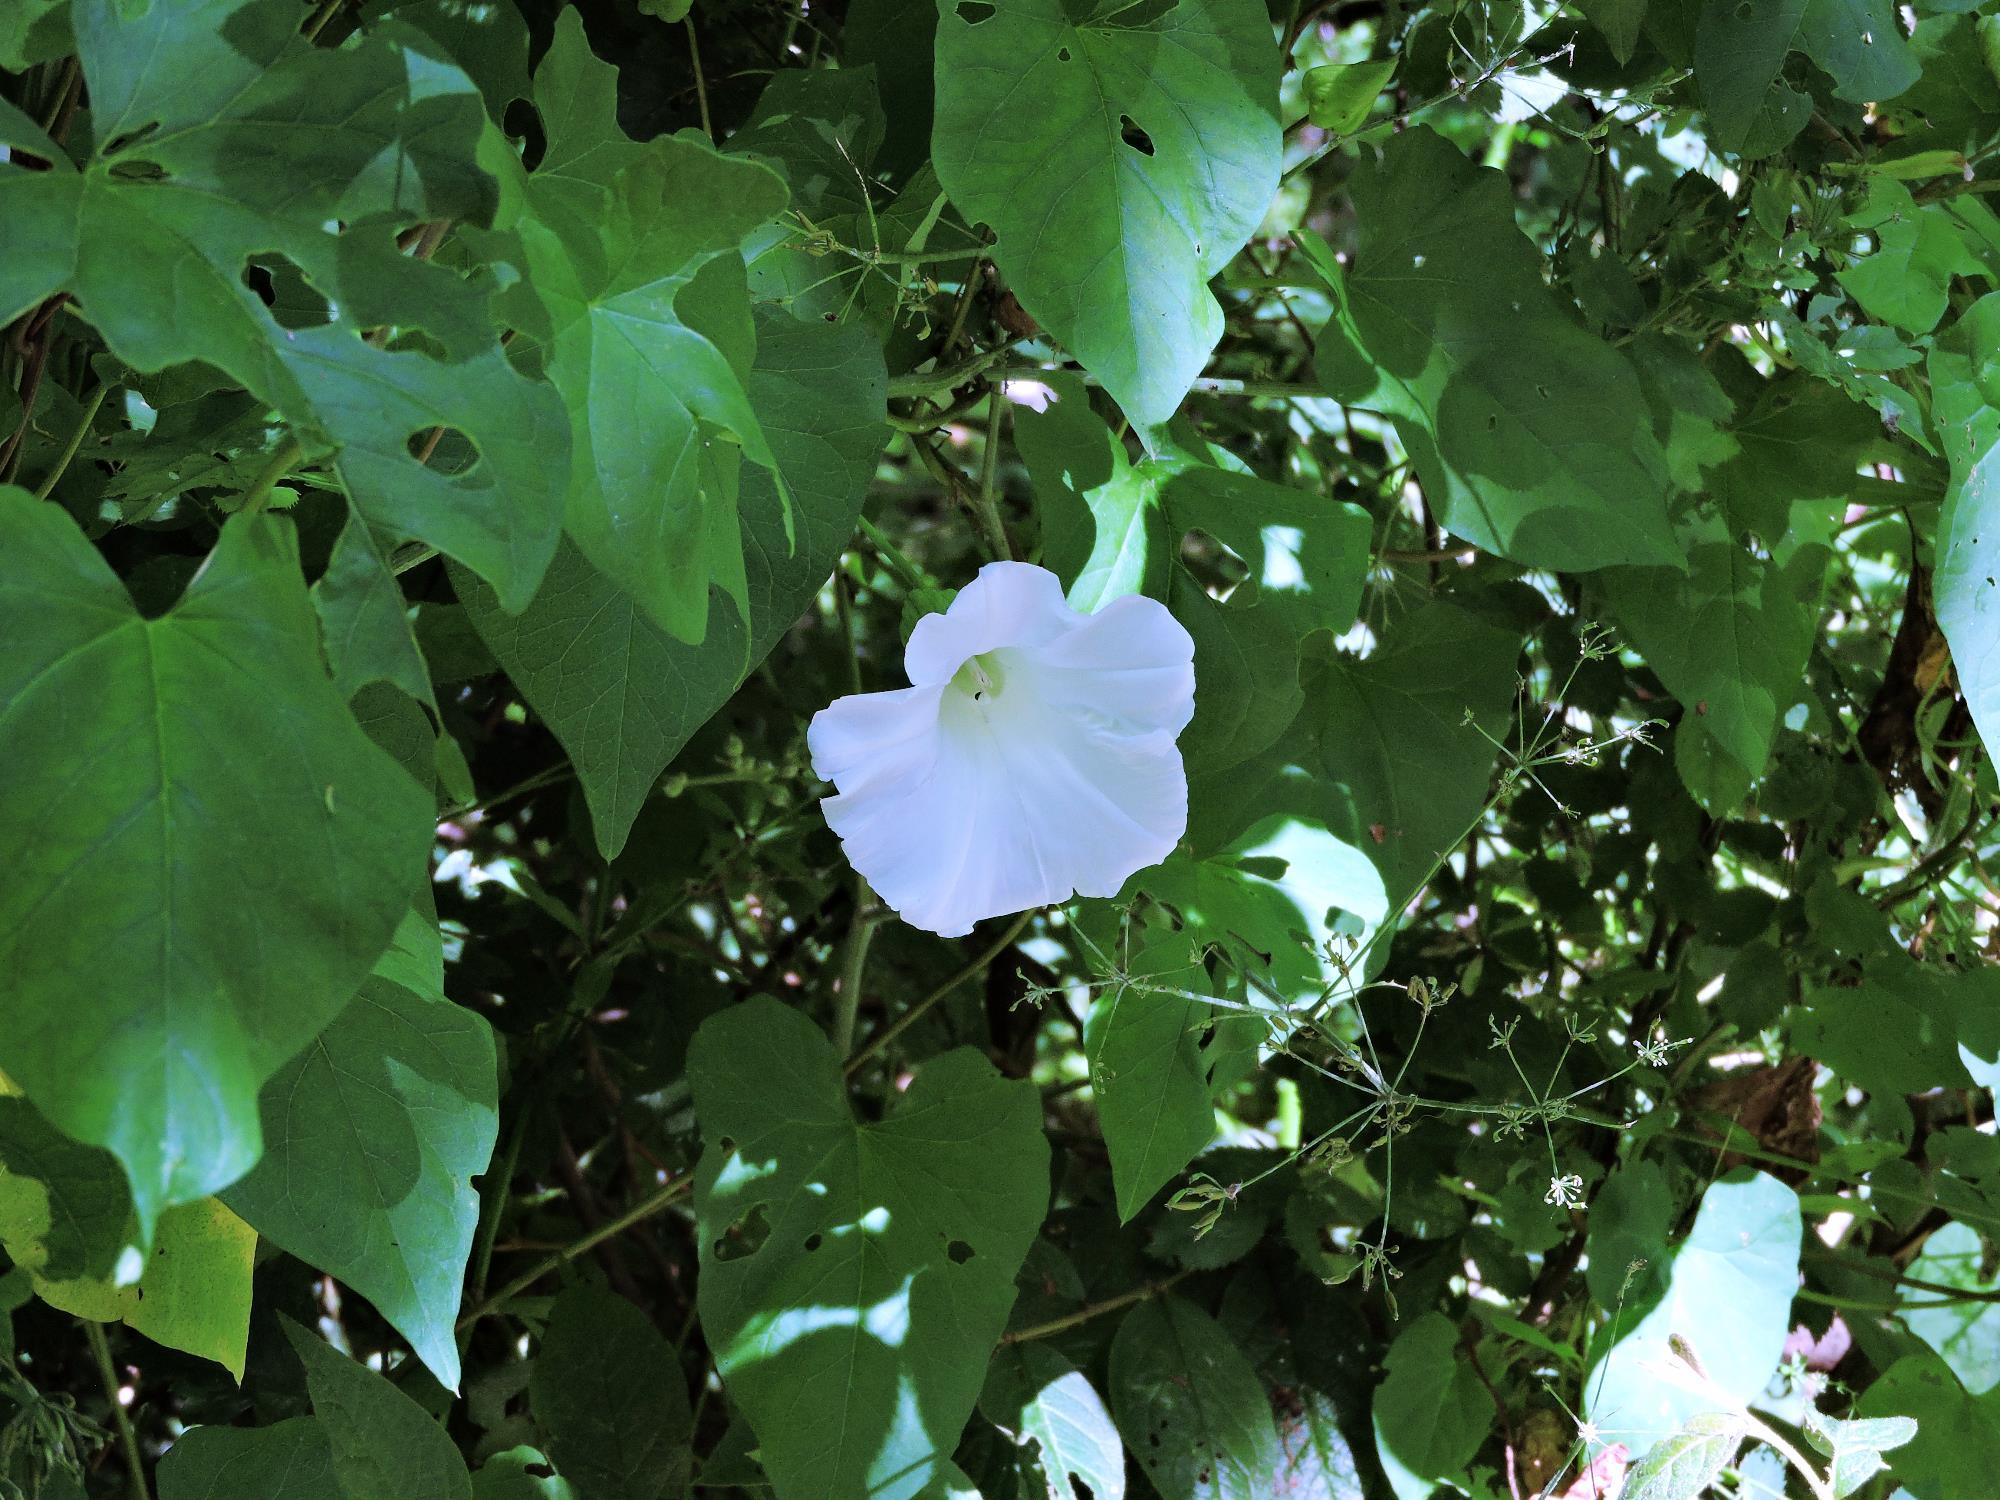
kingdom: Plantae
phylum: Tracheophyta
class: Magnoliopsida
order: Solanales
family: Convolvulaceae
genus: Calystegia
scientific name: Calystegia silvatica
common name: Large bindweed
